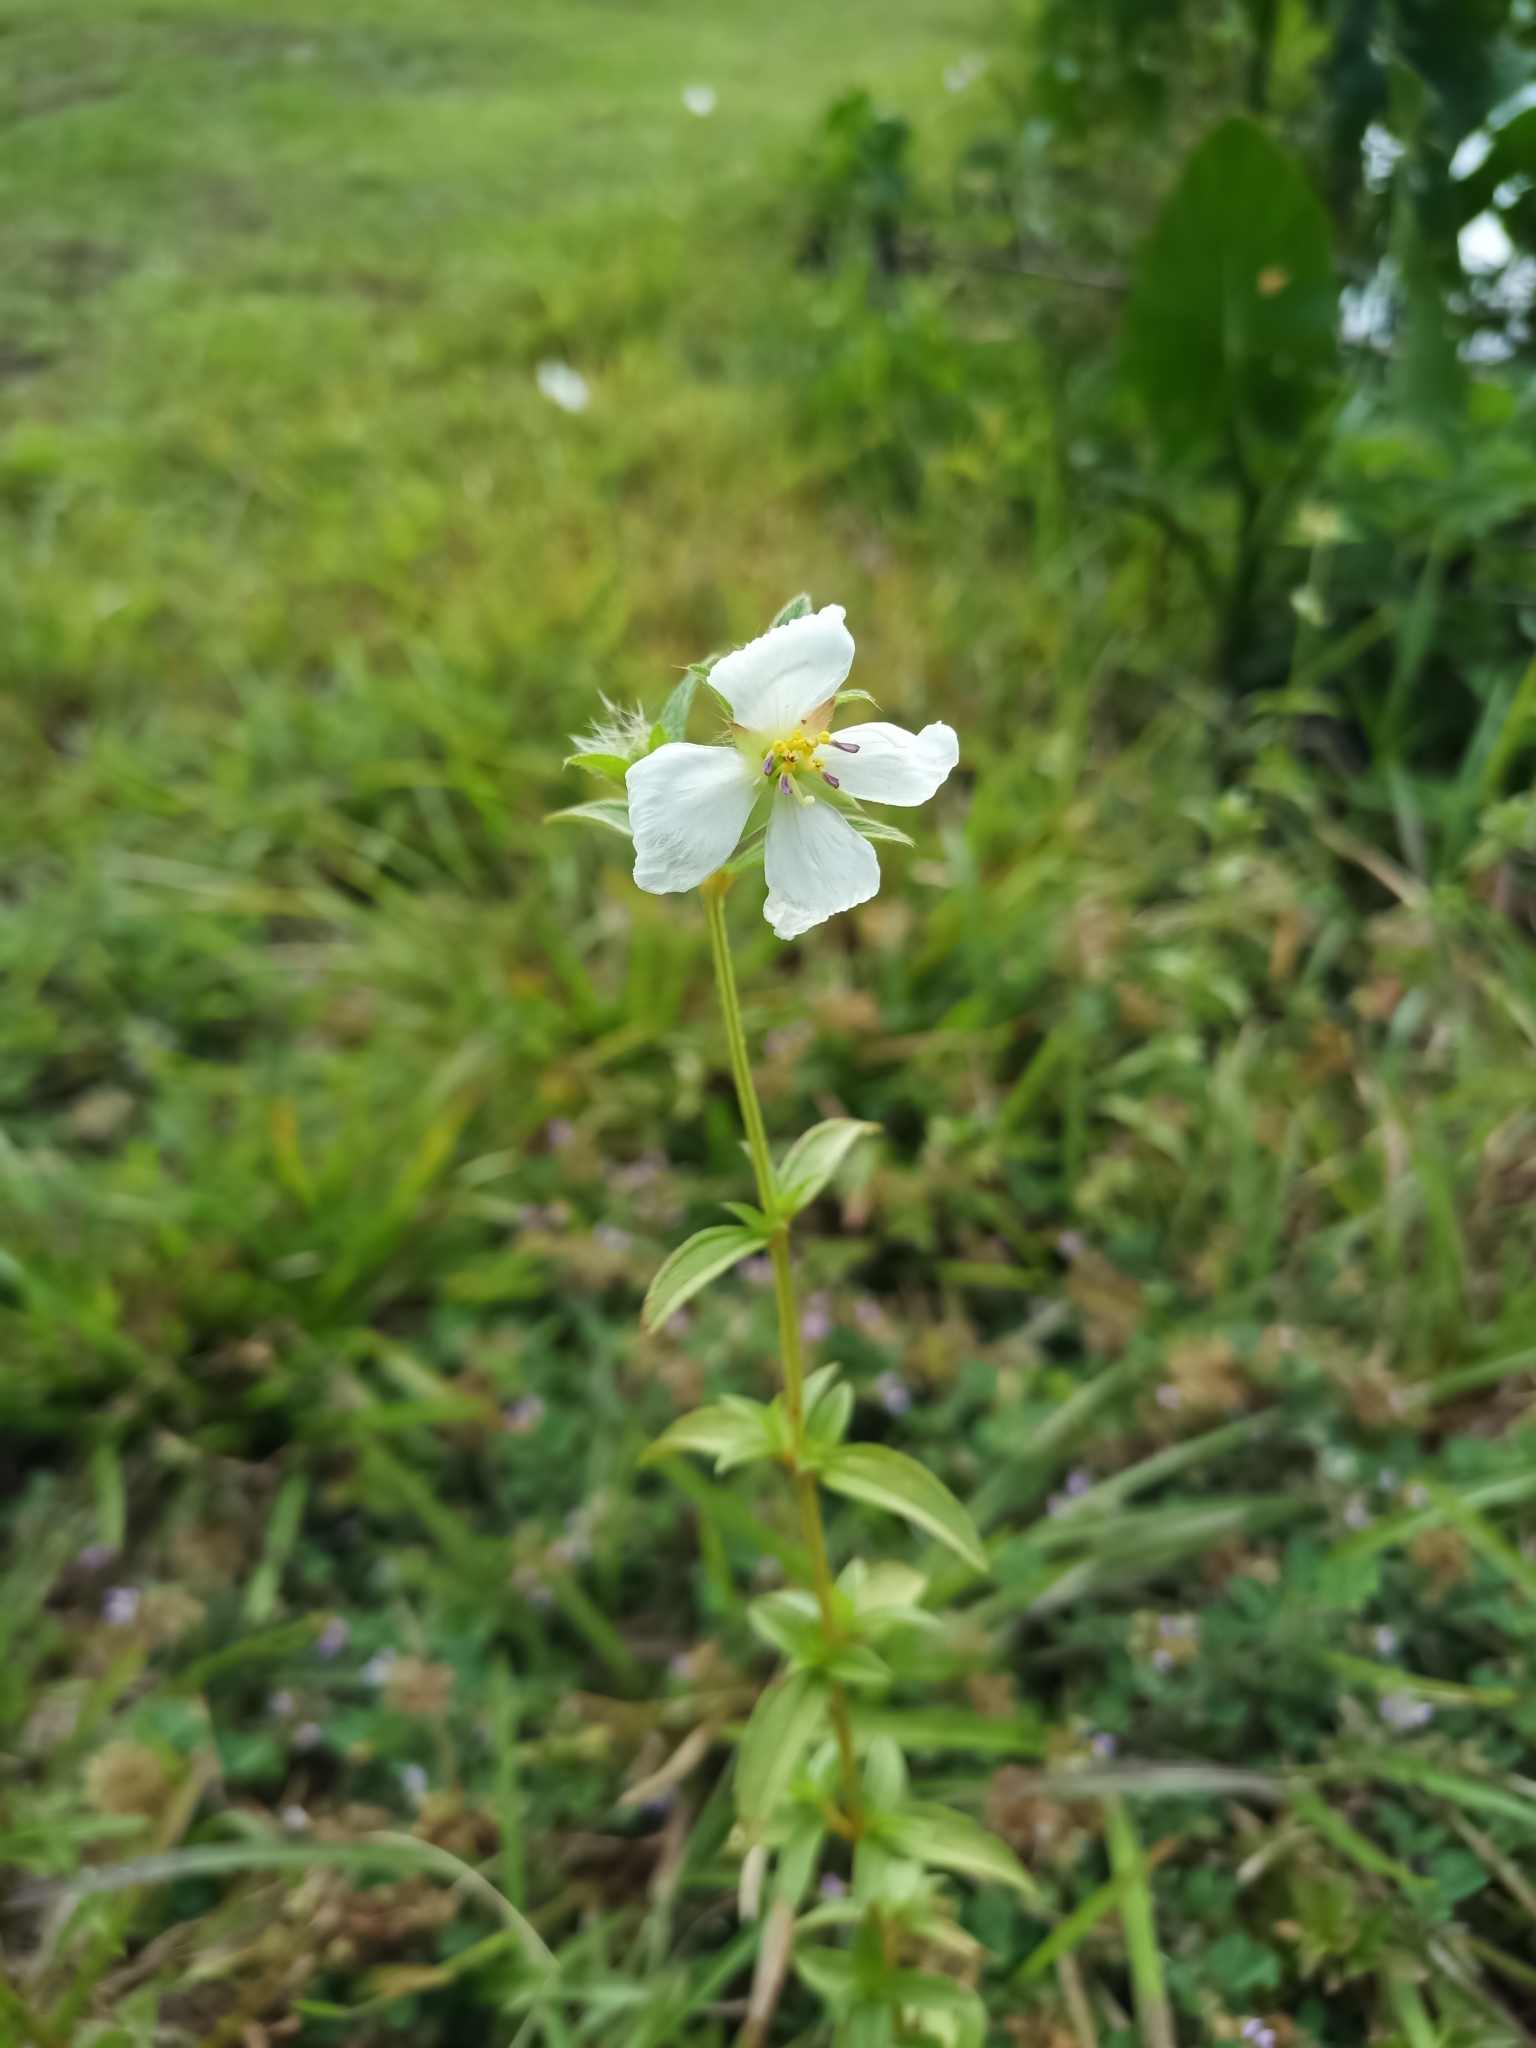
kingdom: Plantae
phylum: Tracheophyta
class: Magnoliopsida
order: Myrtales
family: Melastomataceae
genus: Pterolepis
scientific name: Pterolepis glomerata
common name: False meadowbeauty
